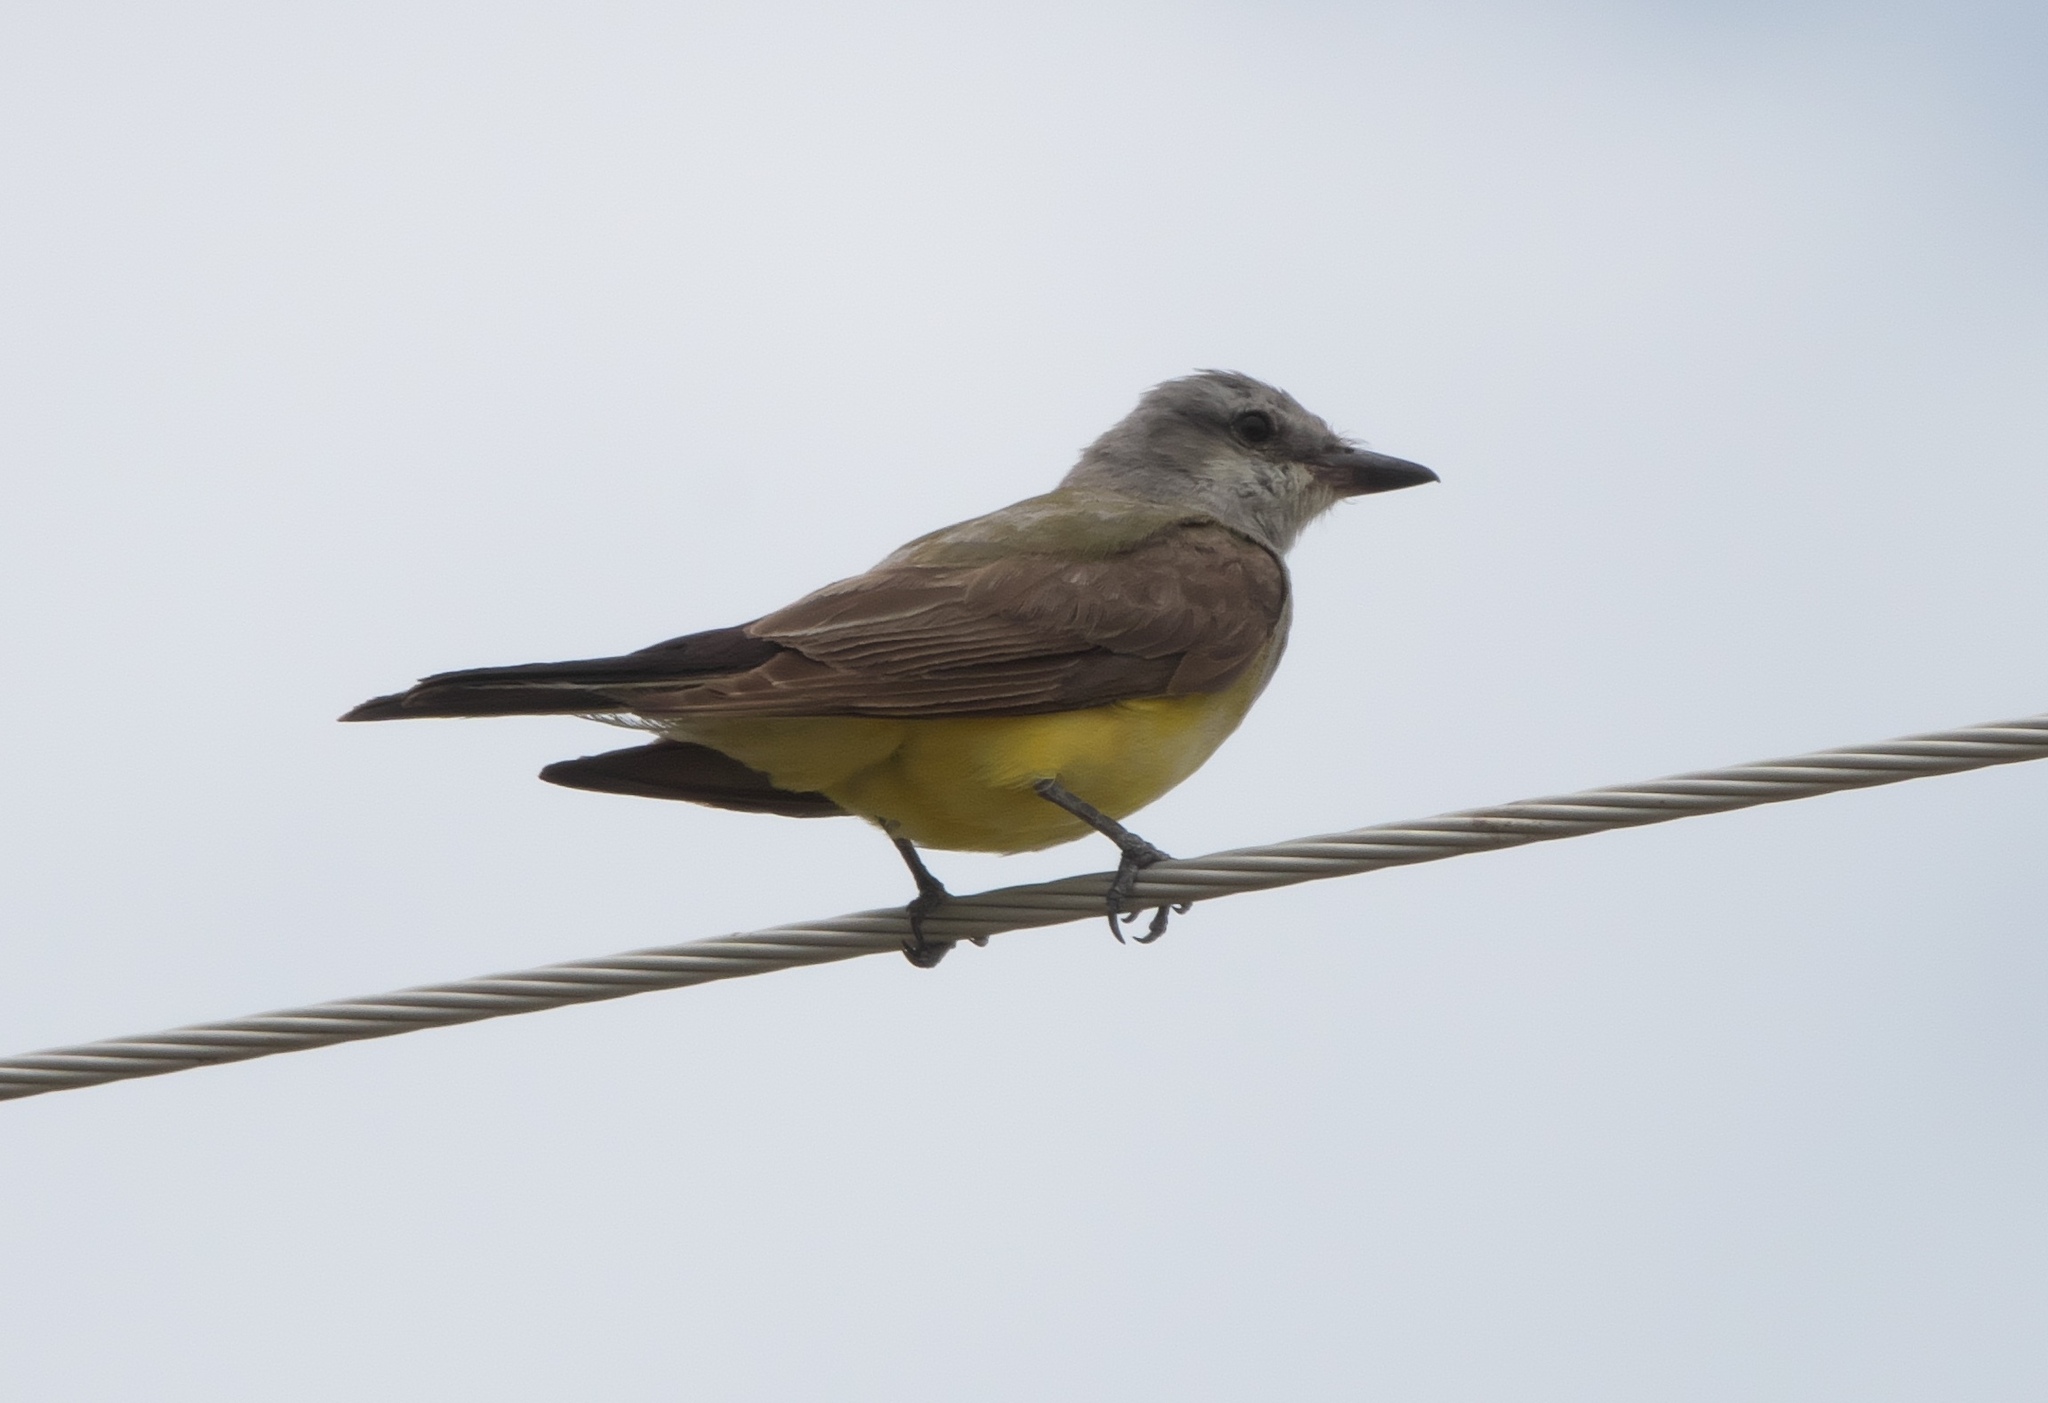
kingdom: Animalia
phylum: Chordata
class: Aves
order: Passeriformes
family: Tyrannidae
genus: Tyrannus
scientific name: Tyrannus verticalis
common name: Western kingbird
